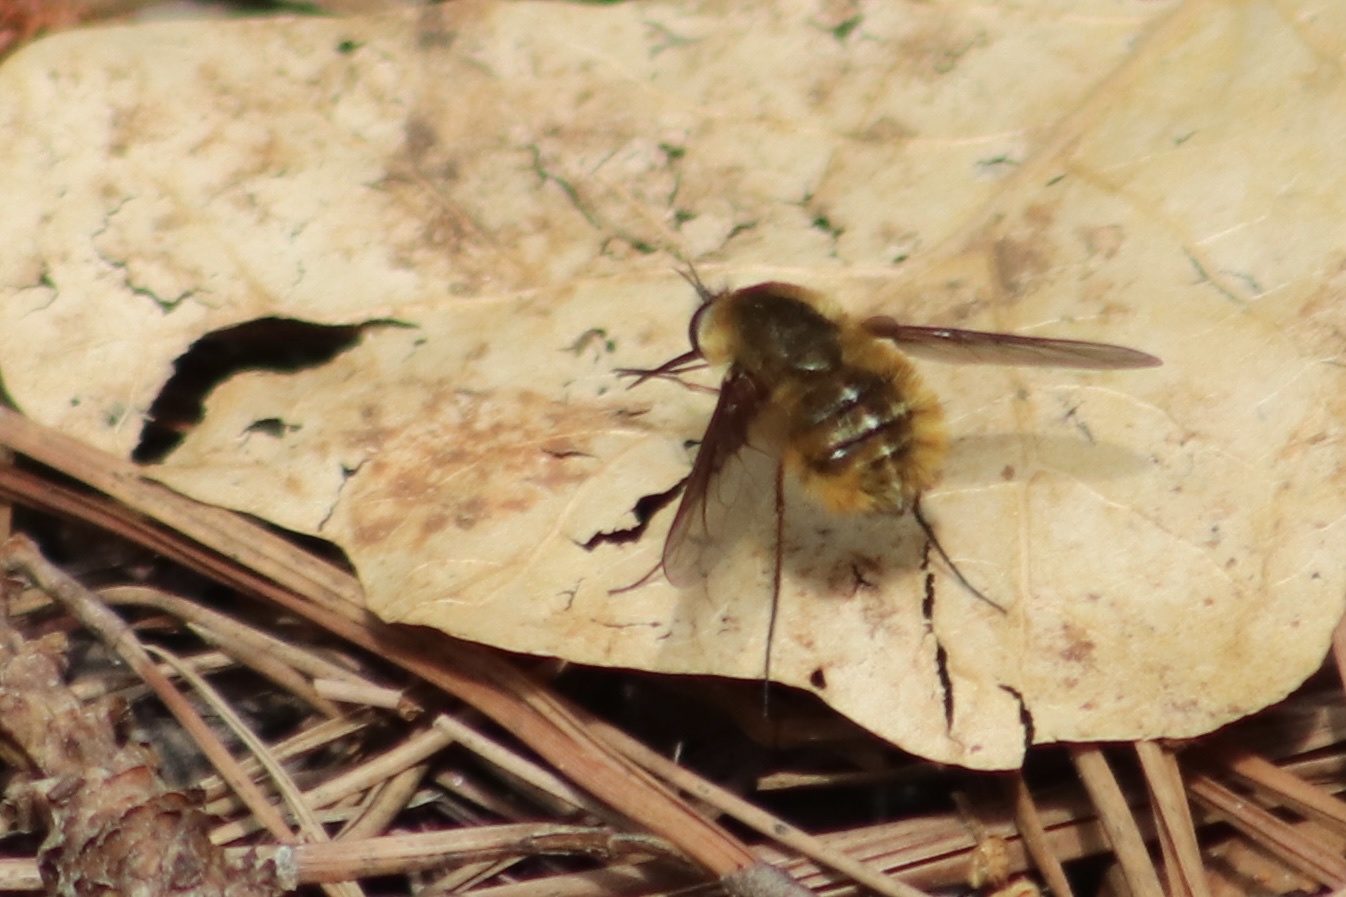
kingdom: Animalia
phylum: Arthropoda
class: Insecta
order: Diptera
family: Bombyliidae
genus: Bombylius
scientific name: Bombylius mexicanus
